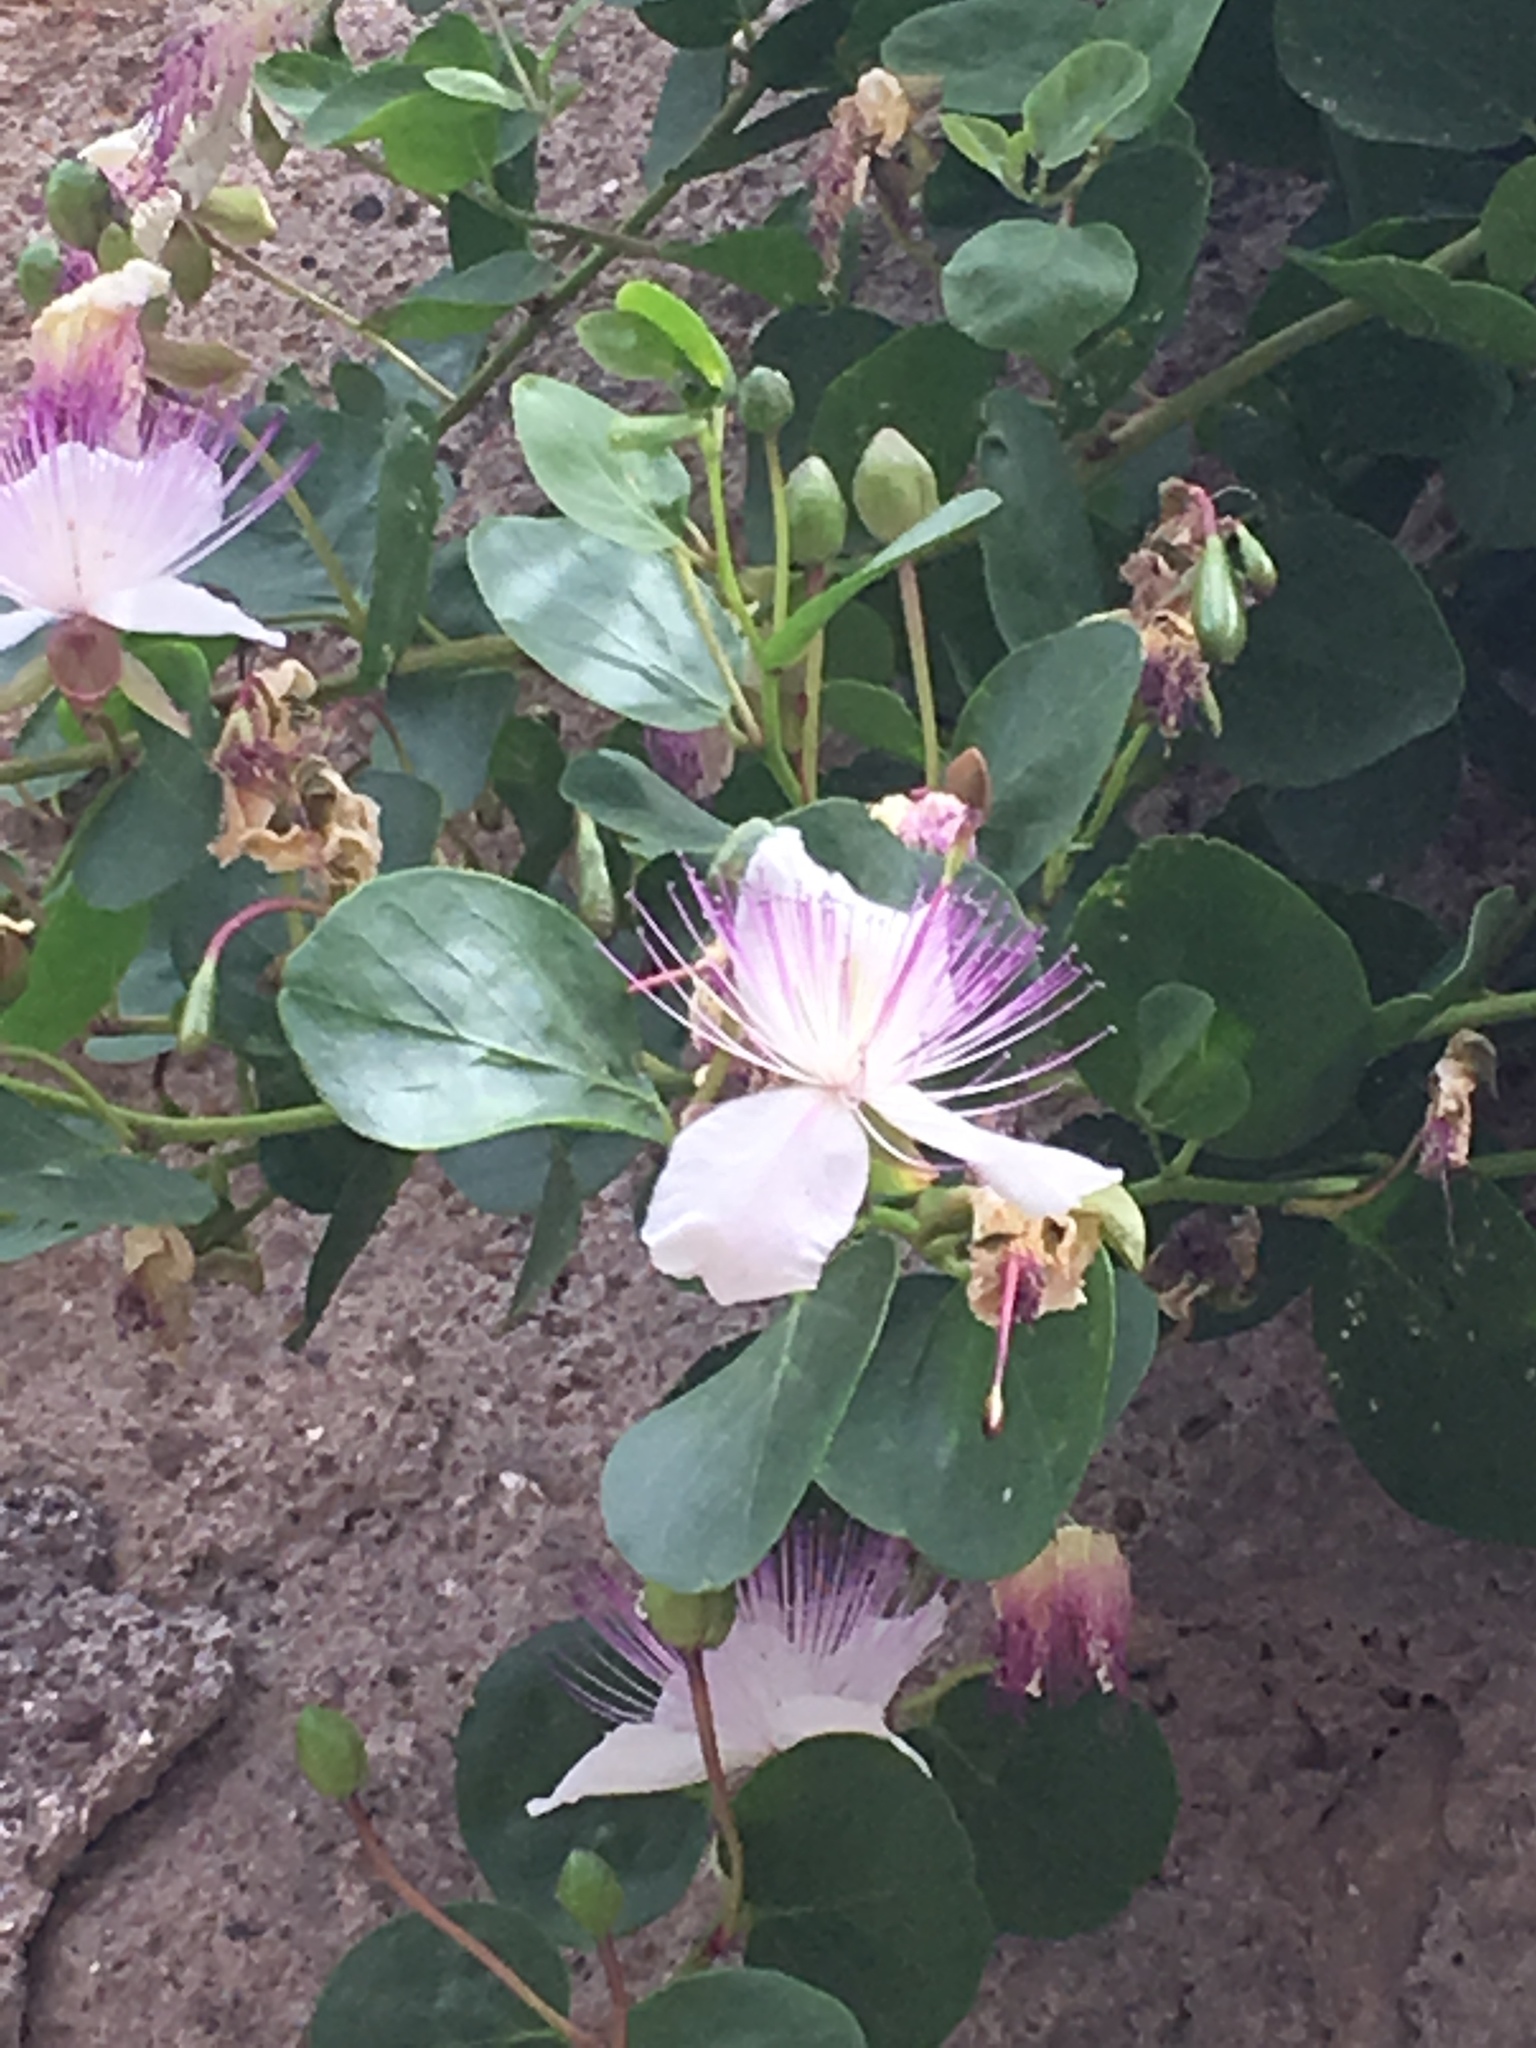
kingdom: Plantae
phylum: Tracheophyta
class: Magnoliopsida
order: Brassicales
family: Capparaceae
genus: Capparis
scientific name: Capparis spinosa
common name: Caper
